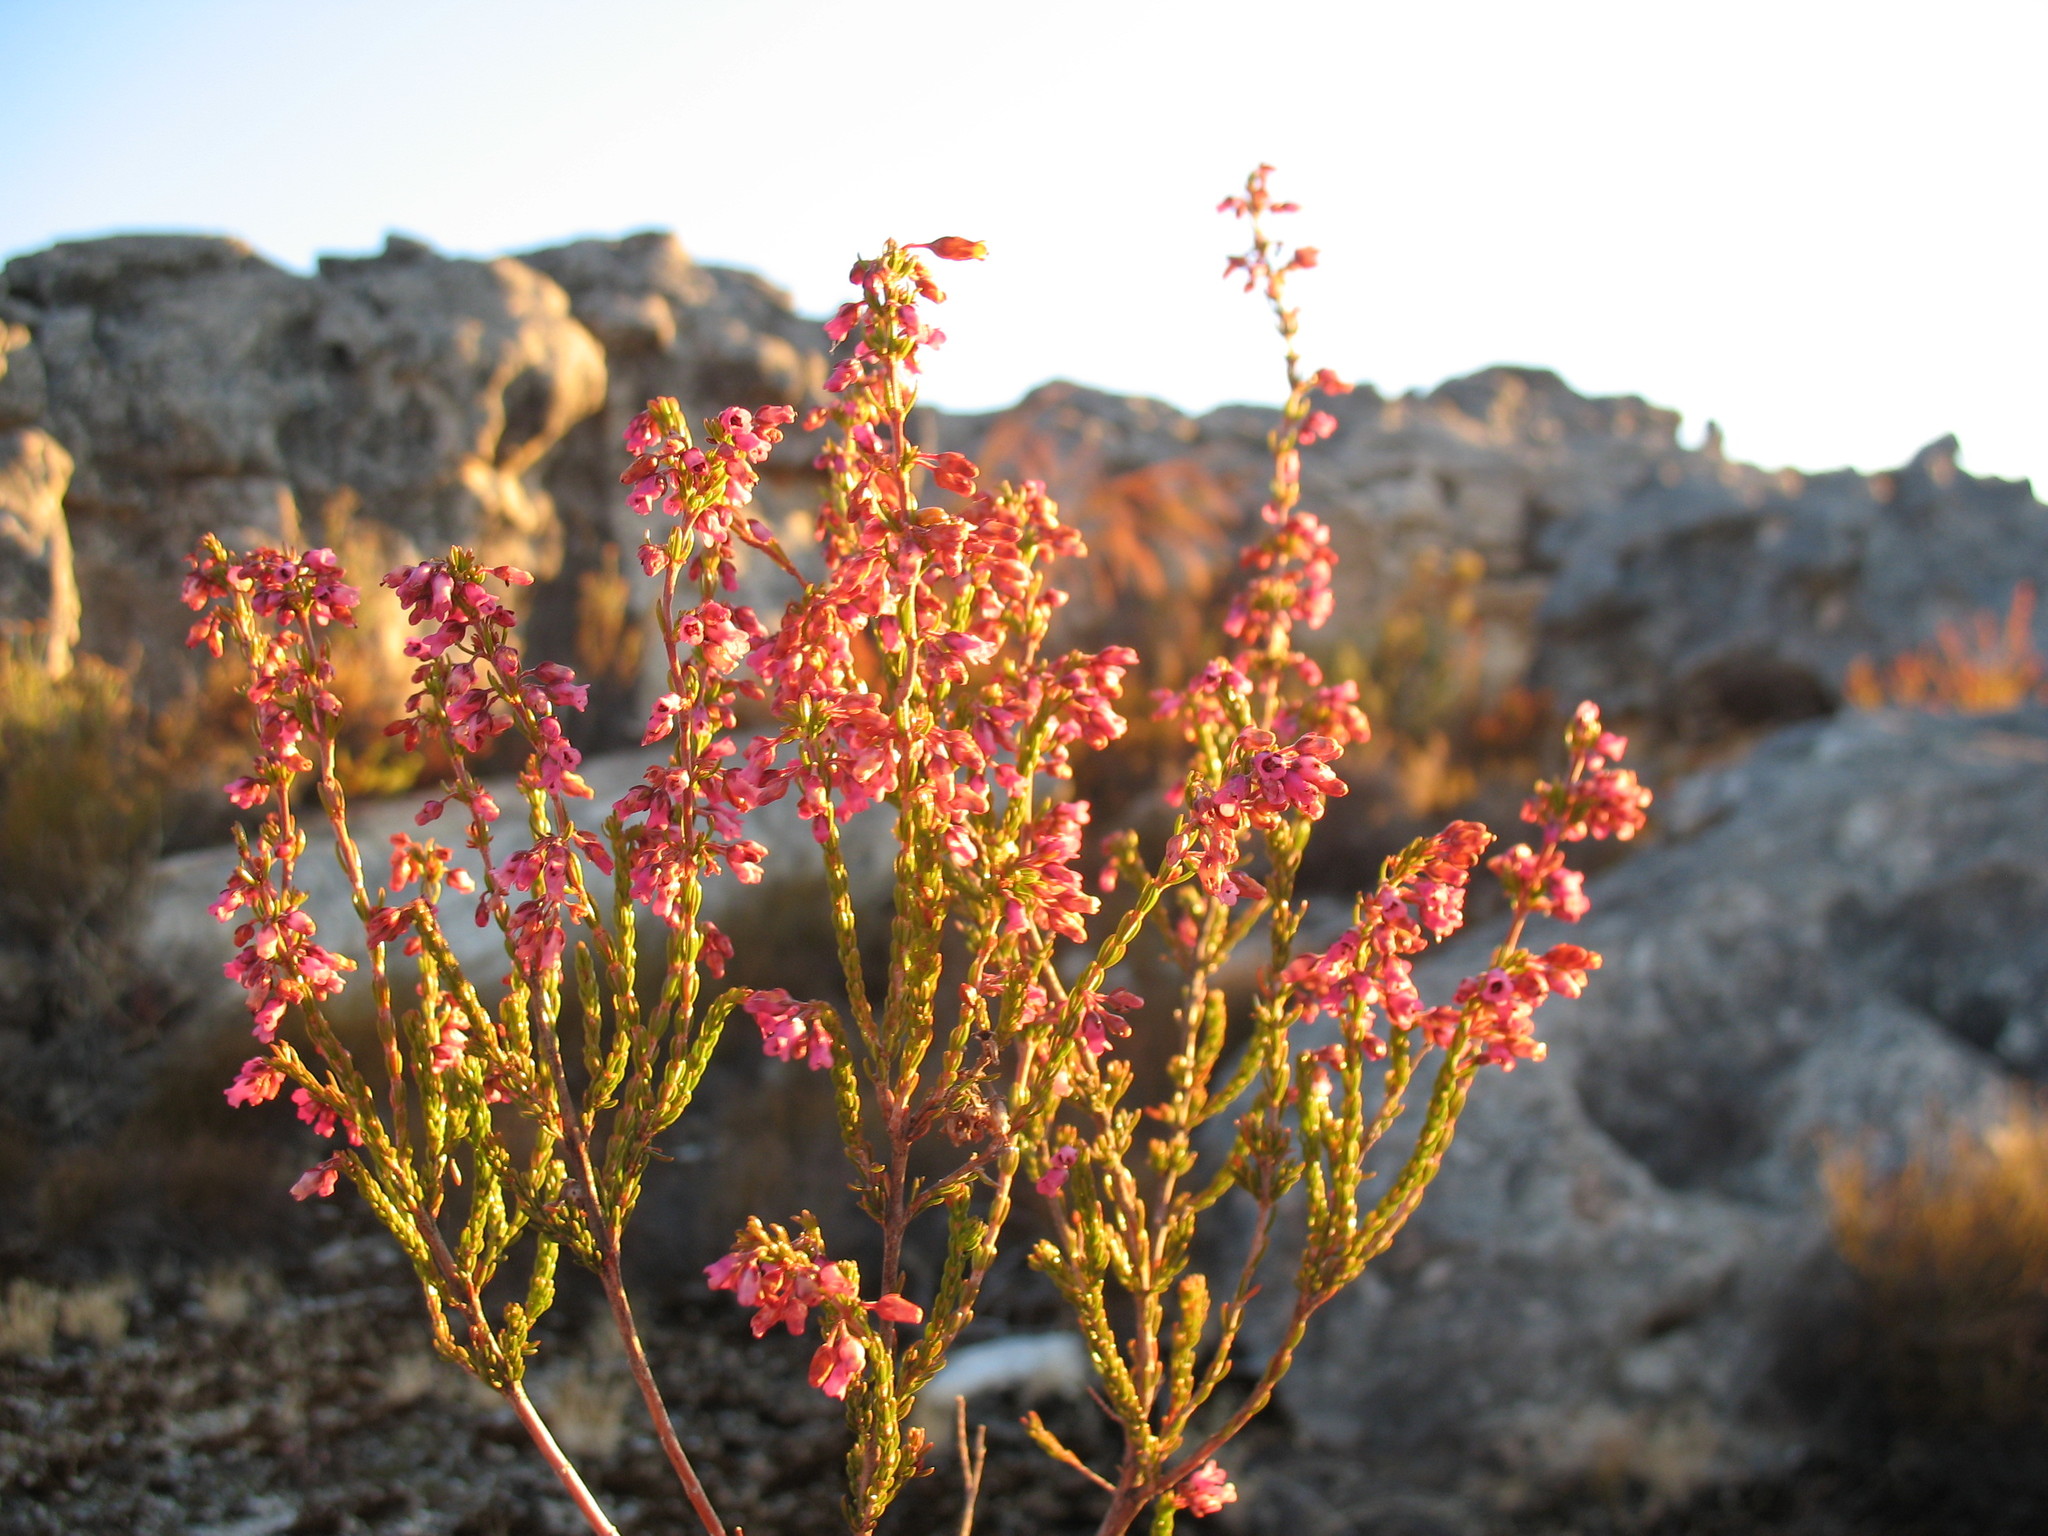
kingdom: Plantae
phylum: Tracheophyta
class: Magnoliopsida
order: Ericales
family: Ericaceae
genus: Erica
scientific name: Erica lateralis
